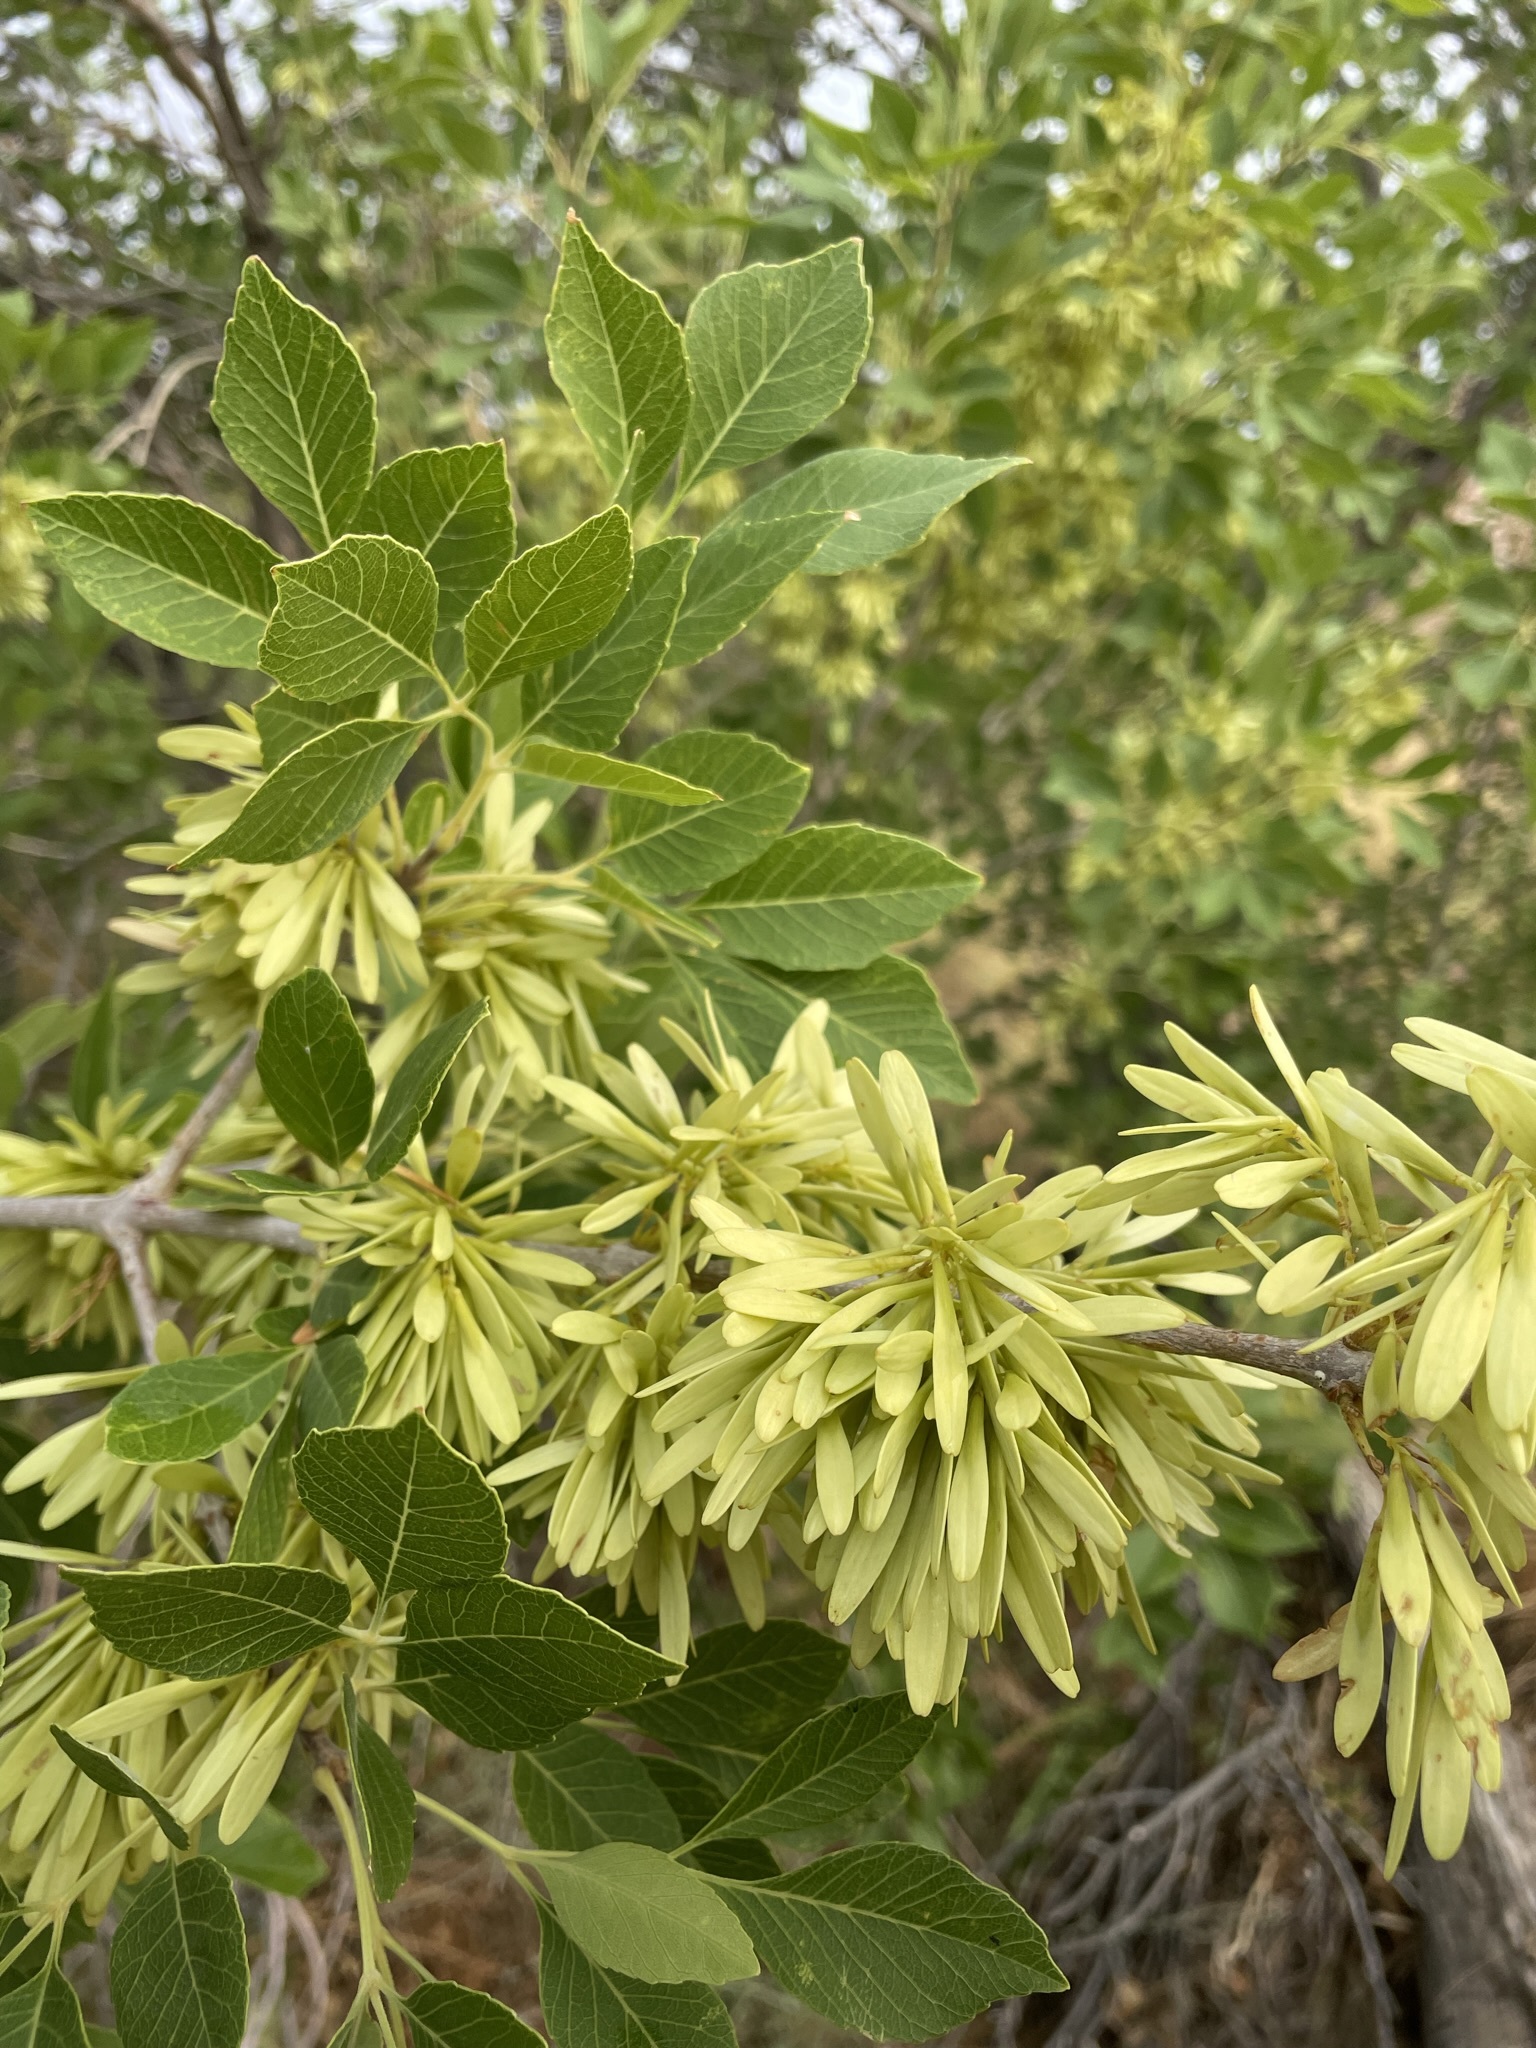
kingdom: Plantae
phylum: Tracheophyta
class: Magnoliopsida
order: Lamiales
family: Oleaceae
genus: Fraxinus
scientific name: Fraxinus velutina
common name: Arizon ash
